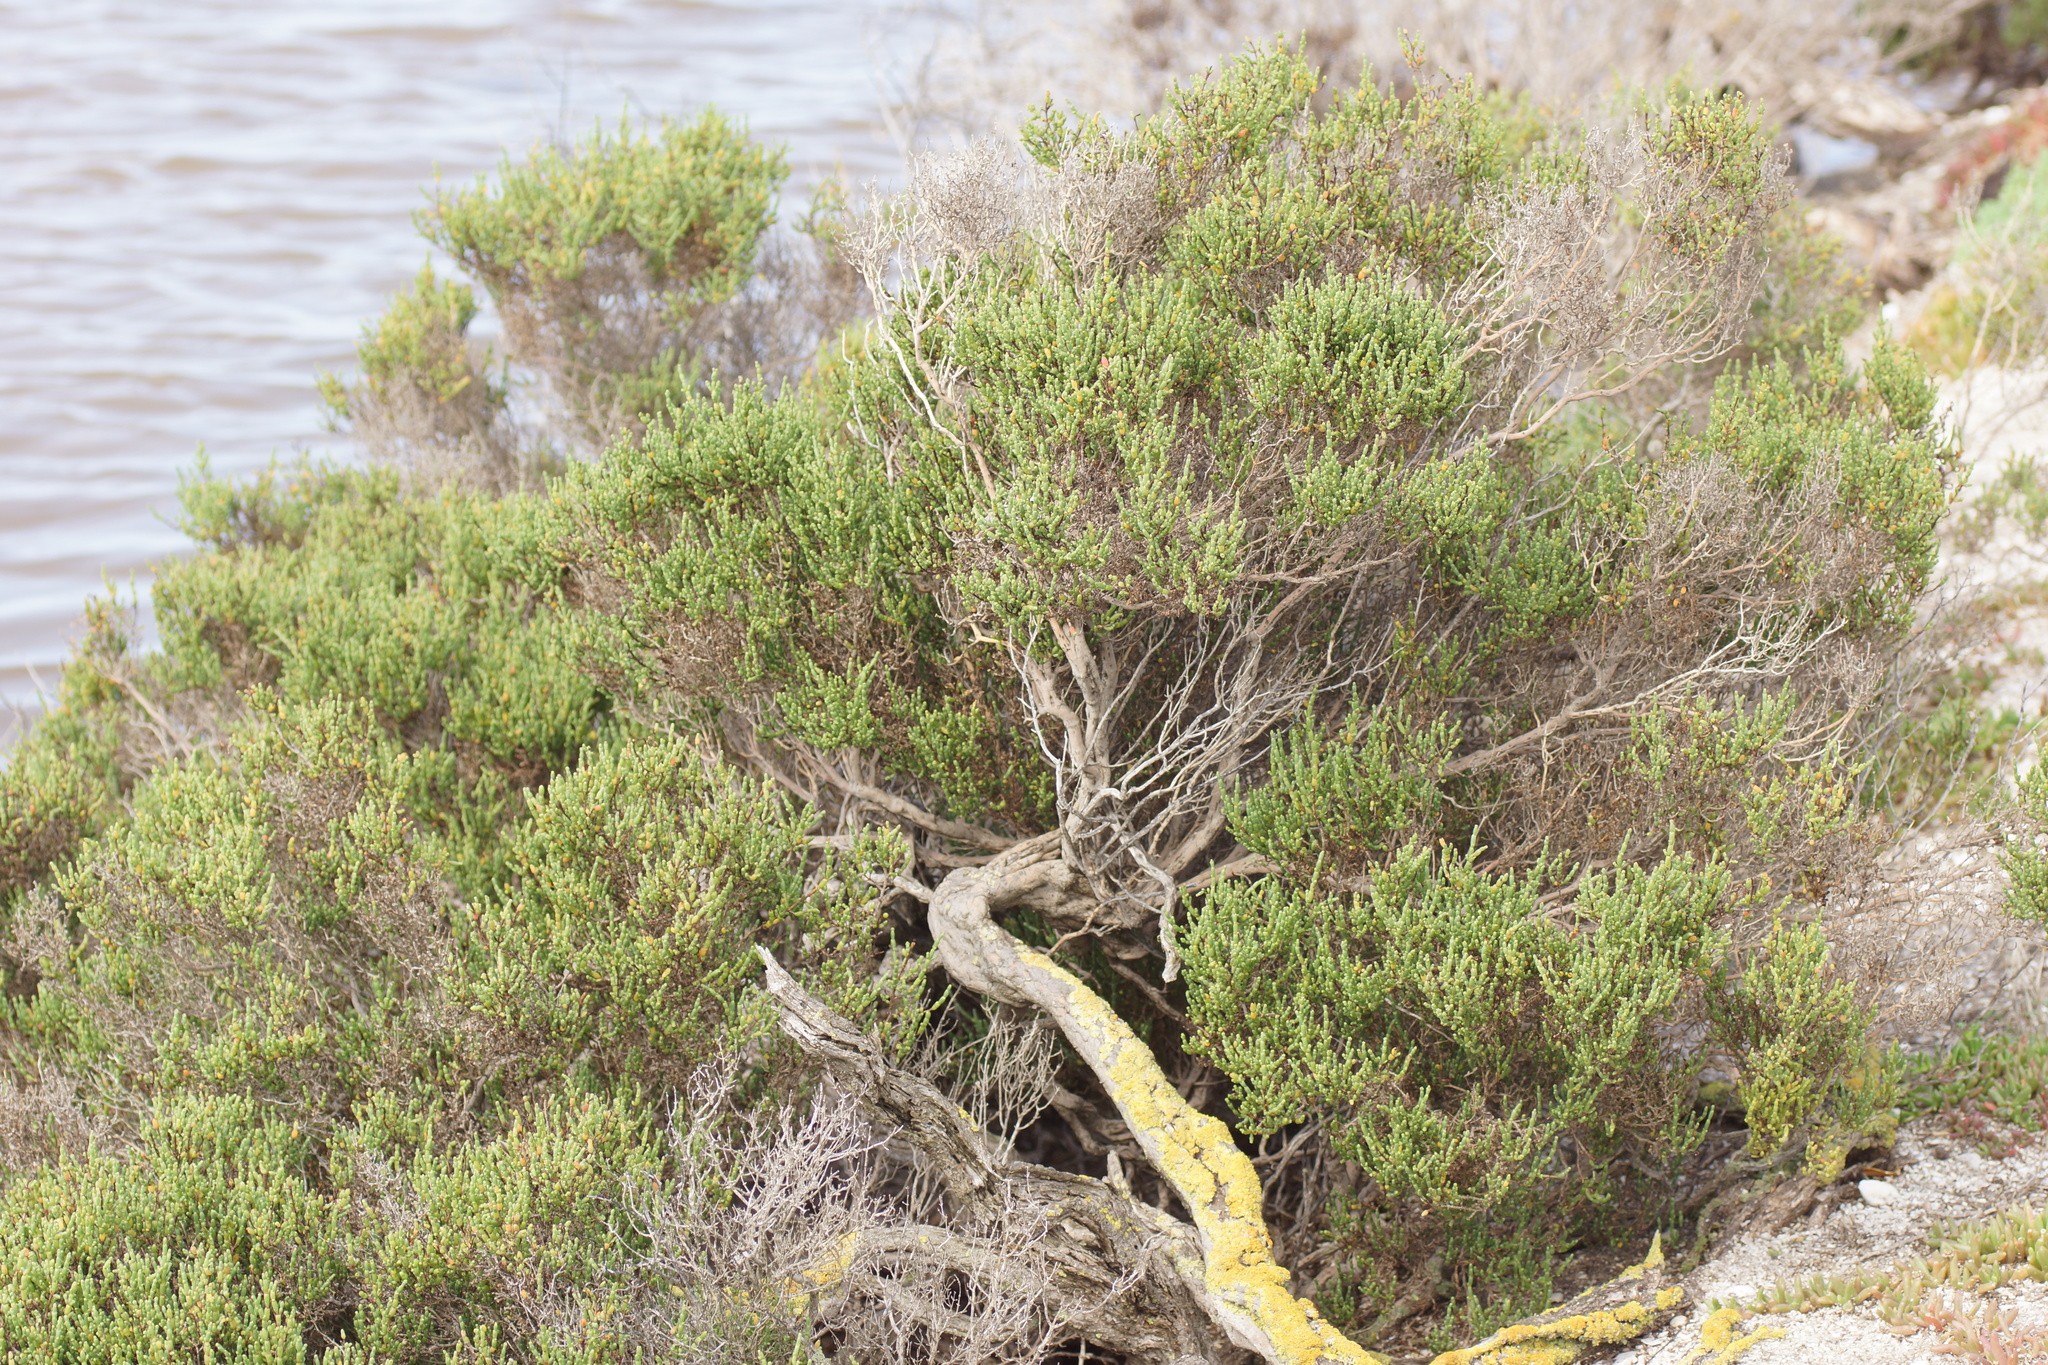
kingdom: Plantae
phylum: Tracheophyta
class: Magnoliopsida
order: Caryophyllales
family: Amaranthaceae
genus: Tecticornia
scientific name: Tecticornia arbuscula
